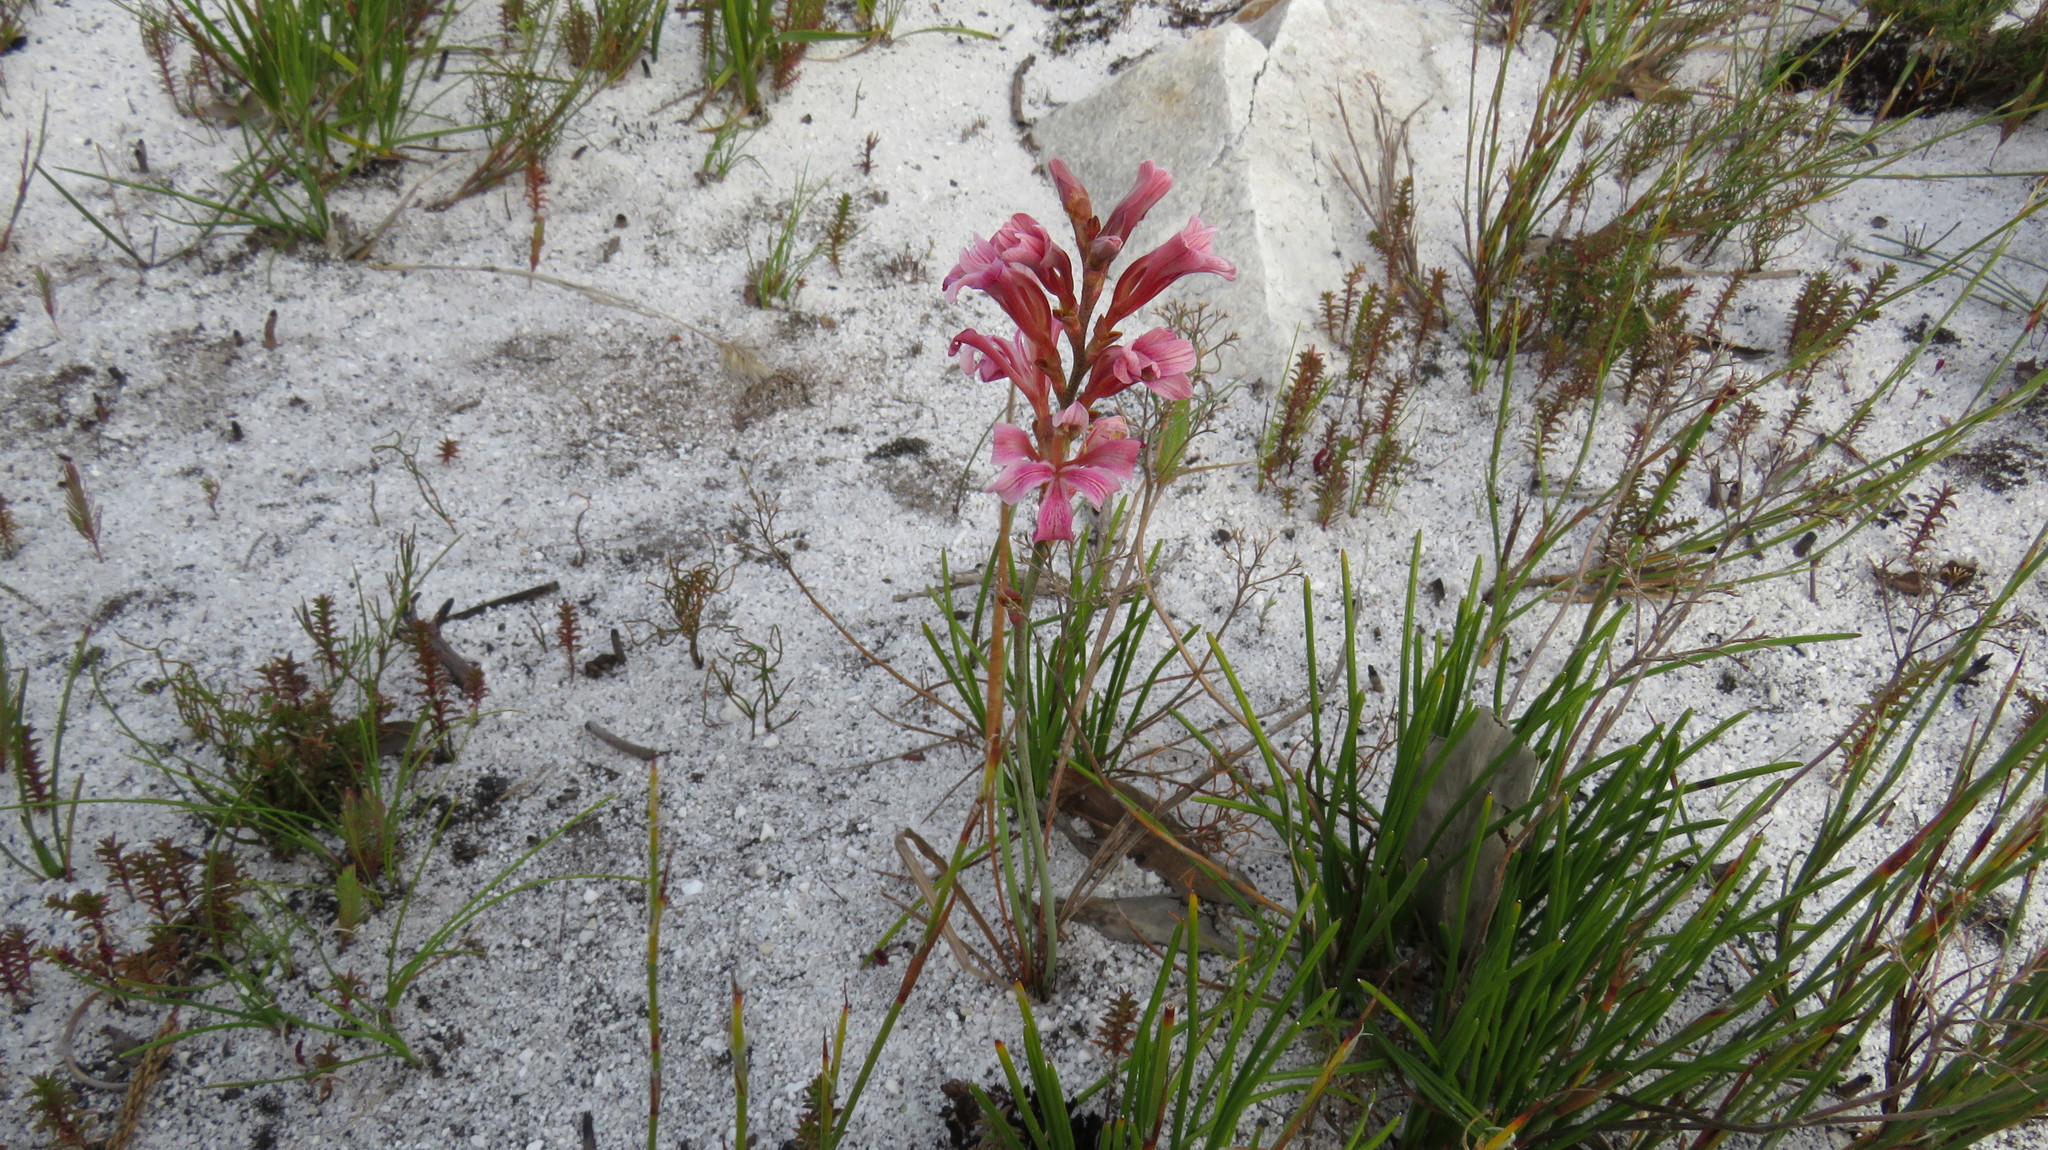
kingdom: Plantae
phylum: Tracheophyta
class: Liliopsida
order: Asparagales
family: Iridaceae
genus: Tritoniopsis
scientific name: Tritoniopsis dodii
